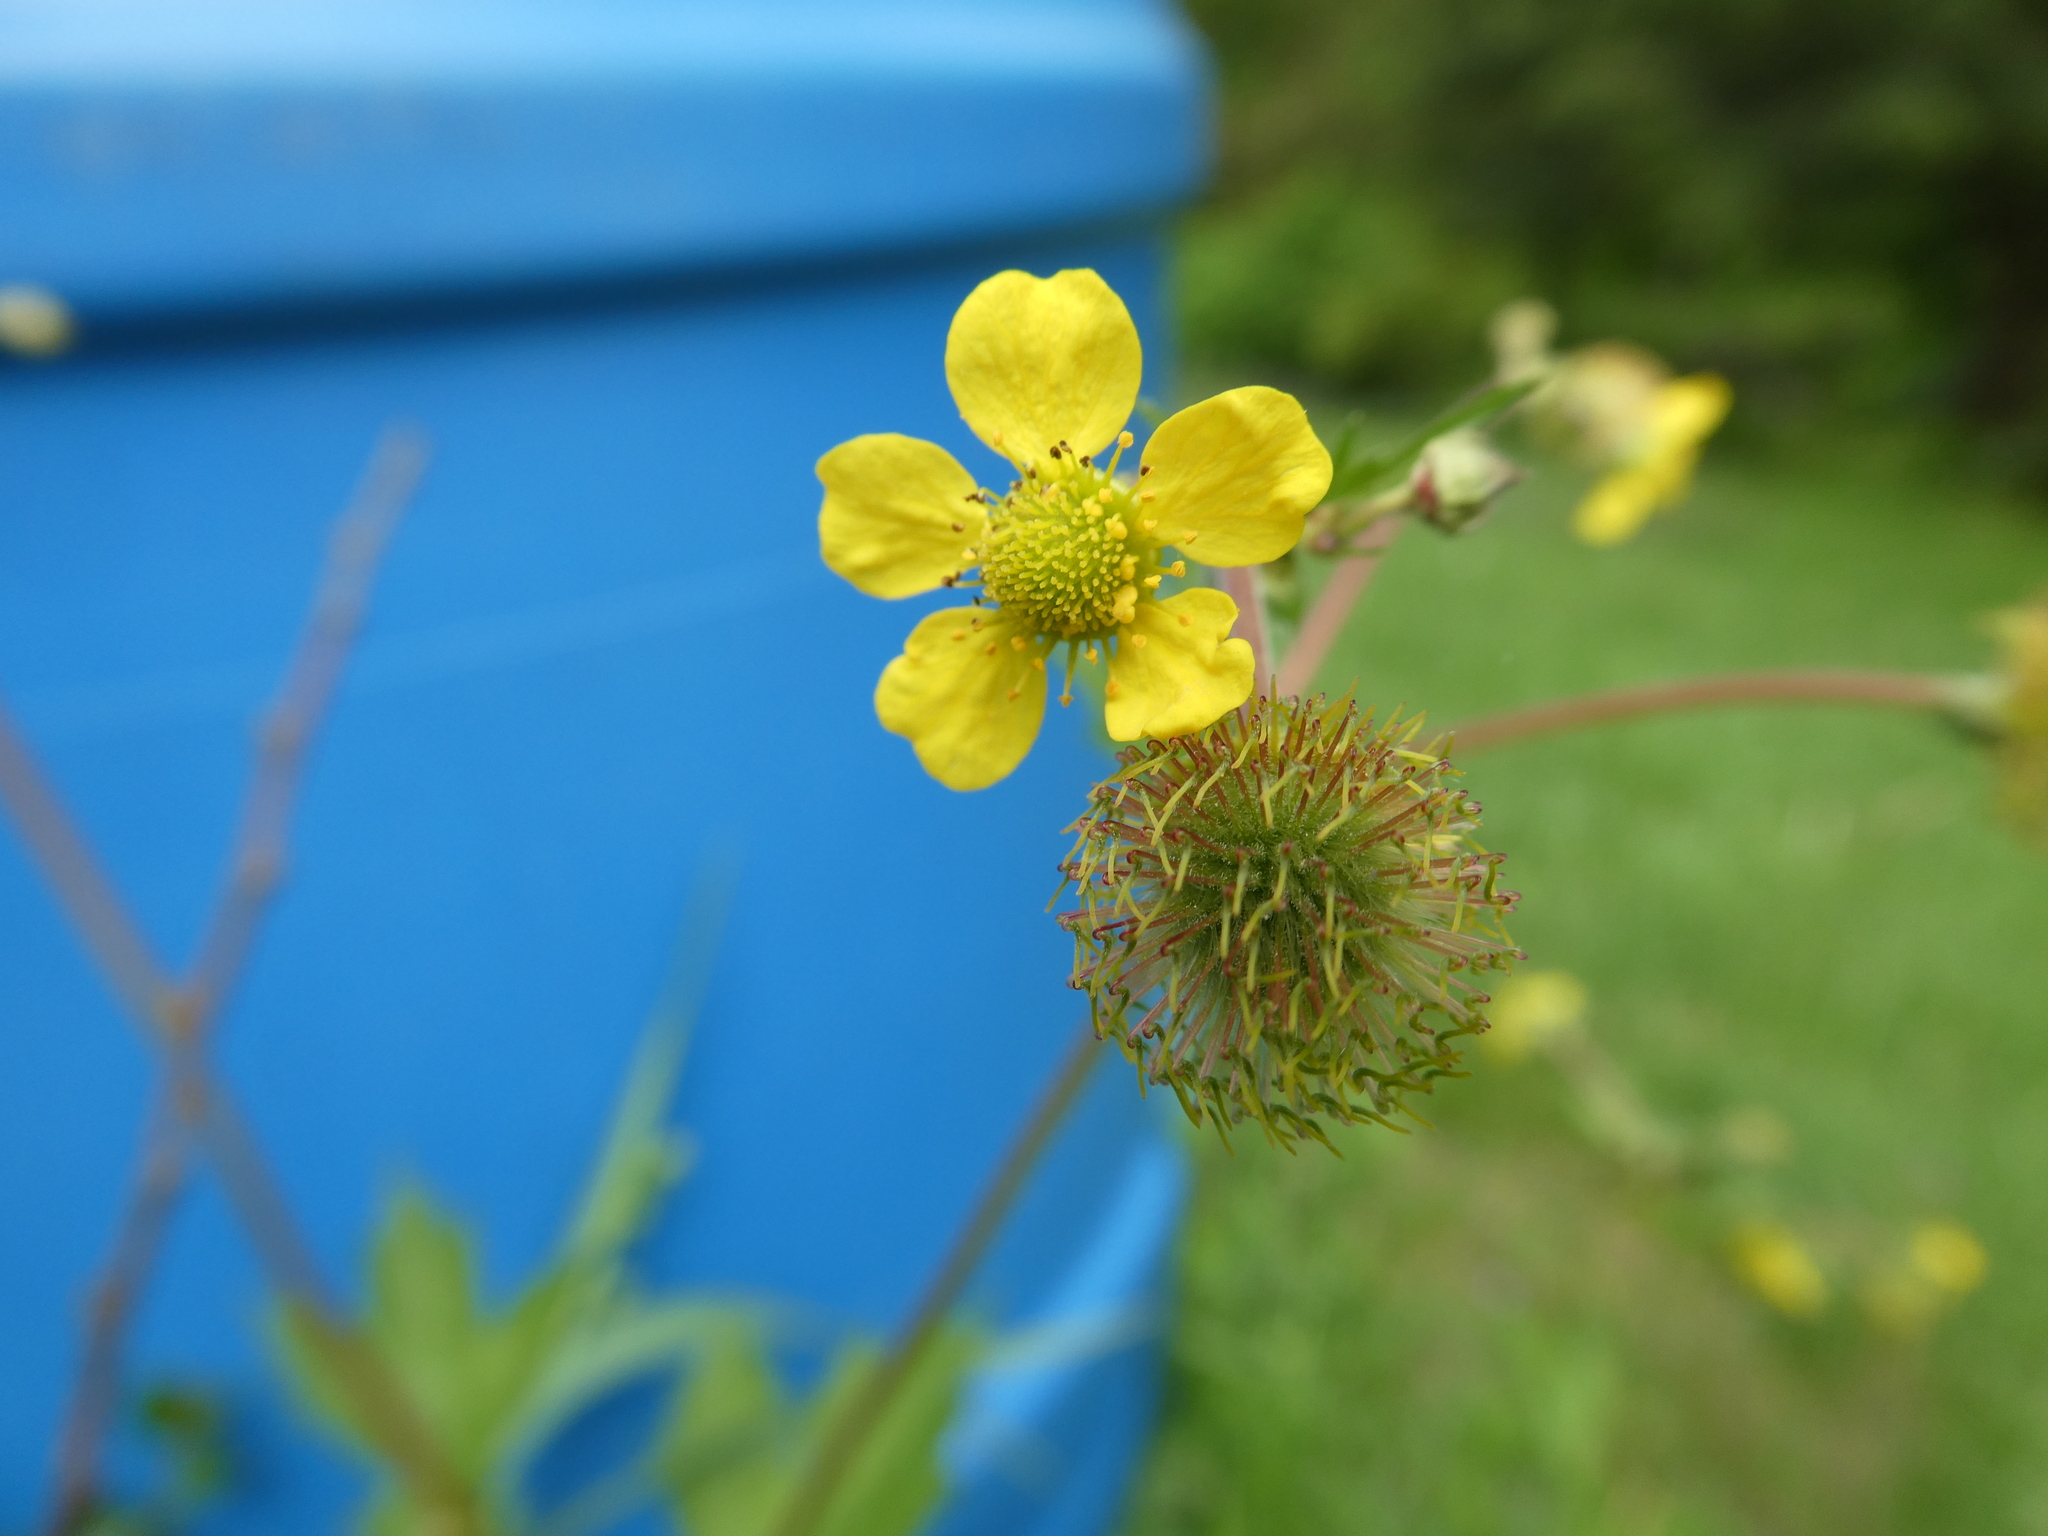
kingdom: Plantae
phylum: Tracheophyta
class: Magnoliopsida
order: Rosales
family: Rosaceae
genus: Geum
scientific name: Geum macrophyllum
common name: Large-leaved avens
